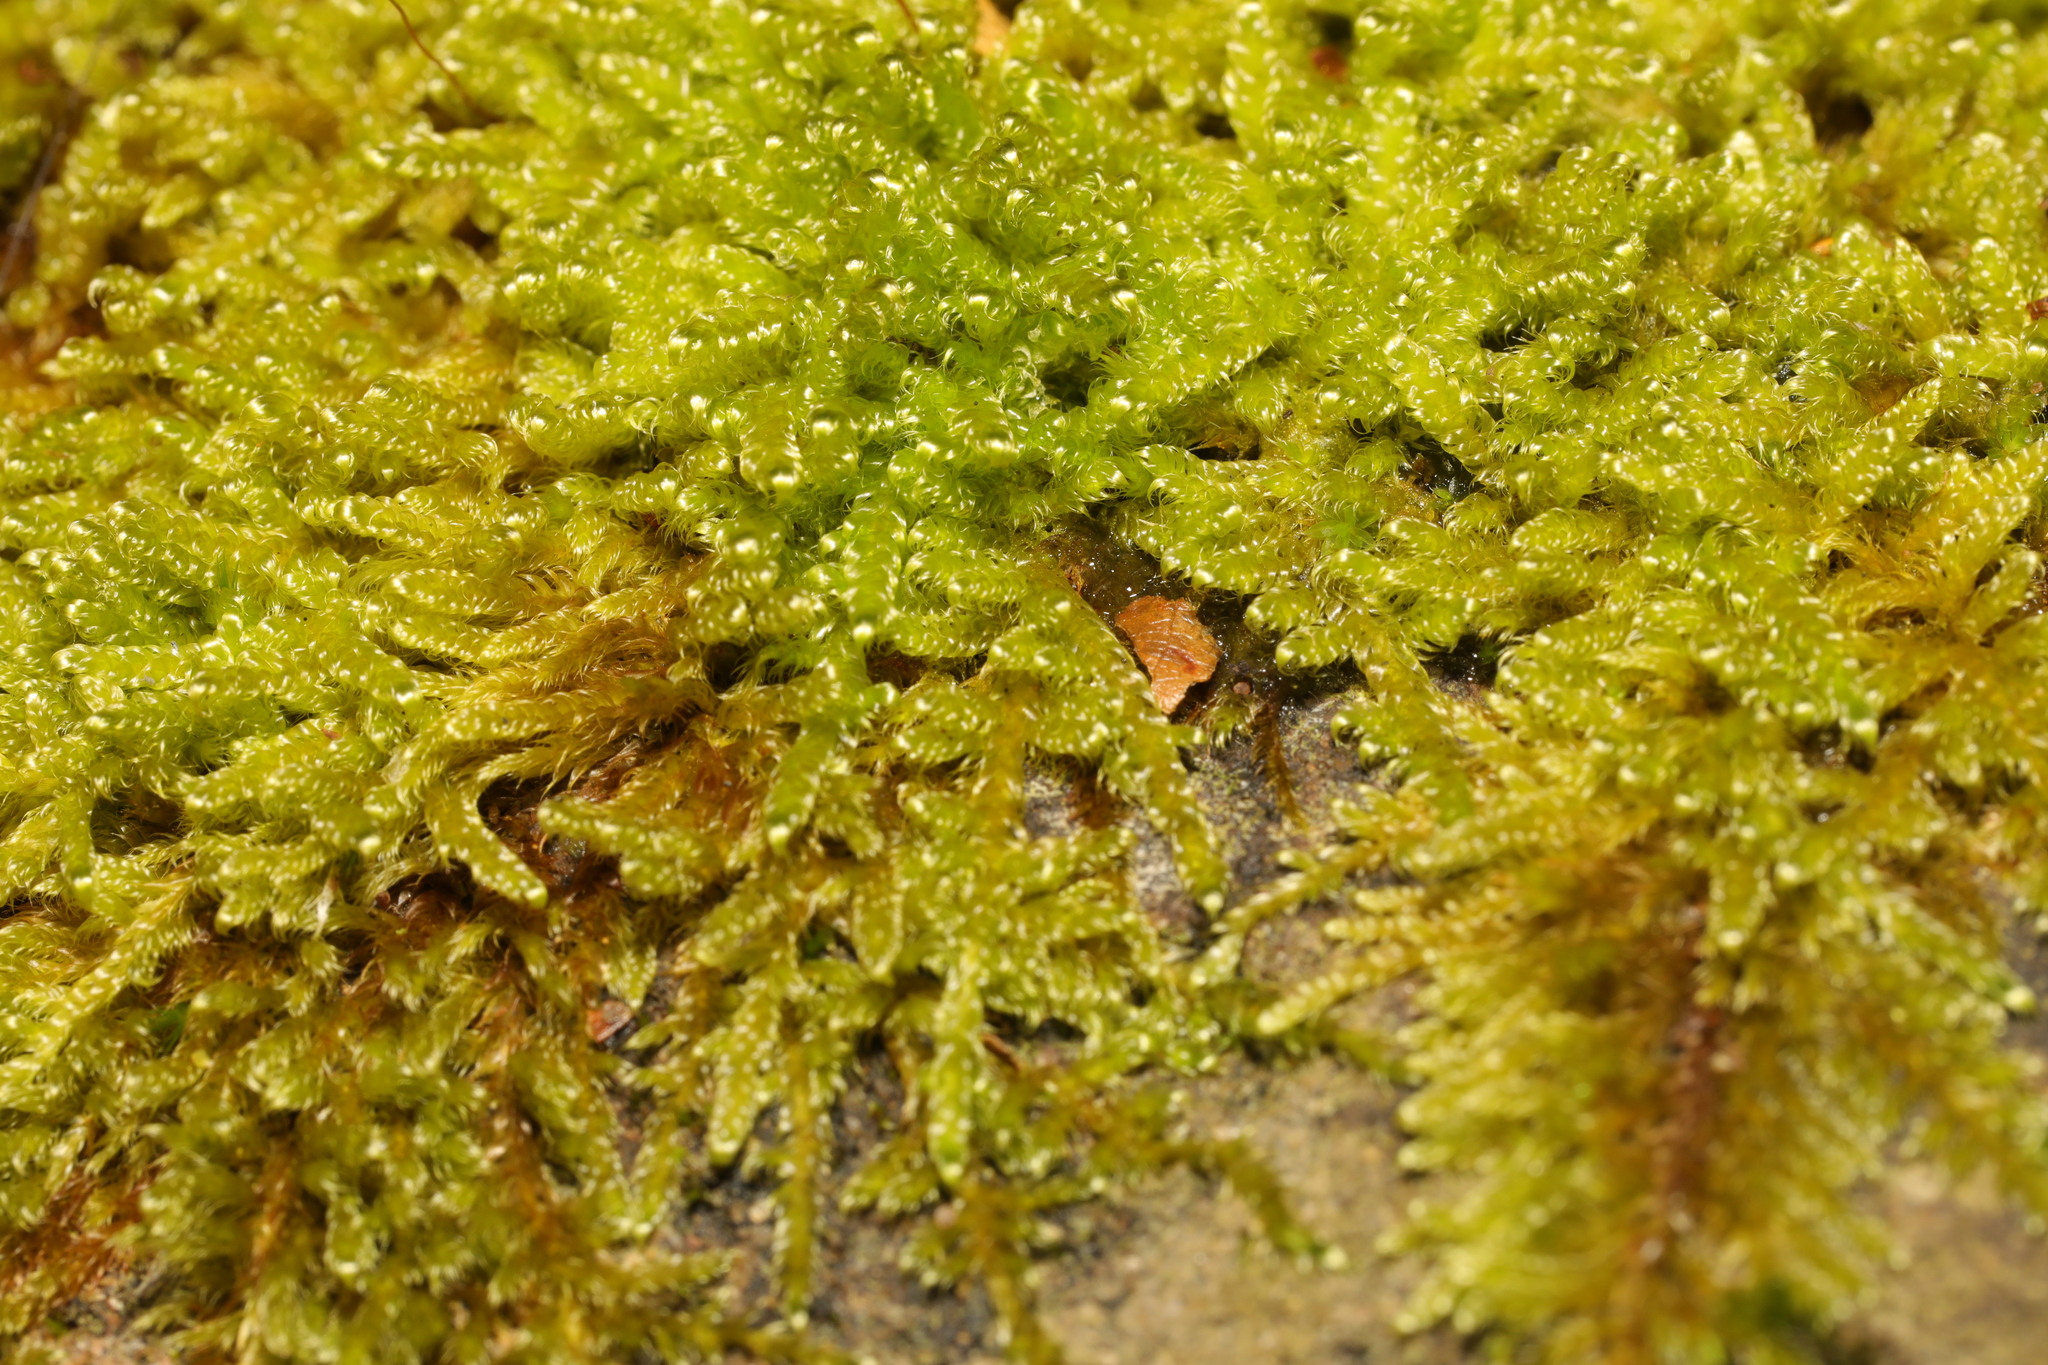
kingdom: Plantae
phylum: Bryophyta
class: Bryopsida
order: Hypnales
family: Hypnaceae
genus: Hypnum
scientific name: Hypnum cupressiforme
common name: Cypress-leaved plait-moss
